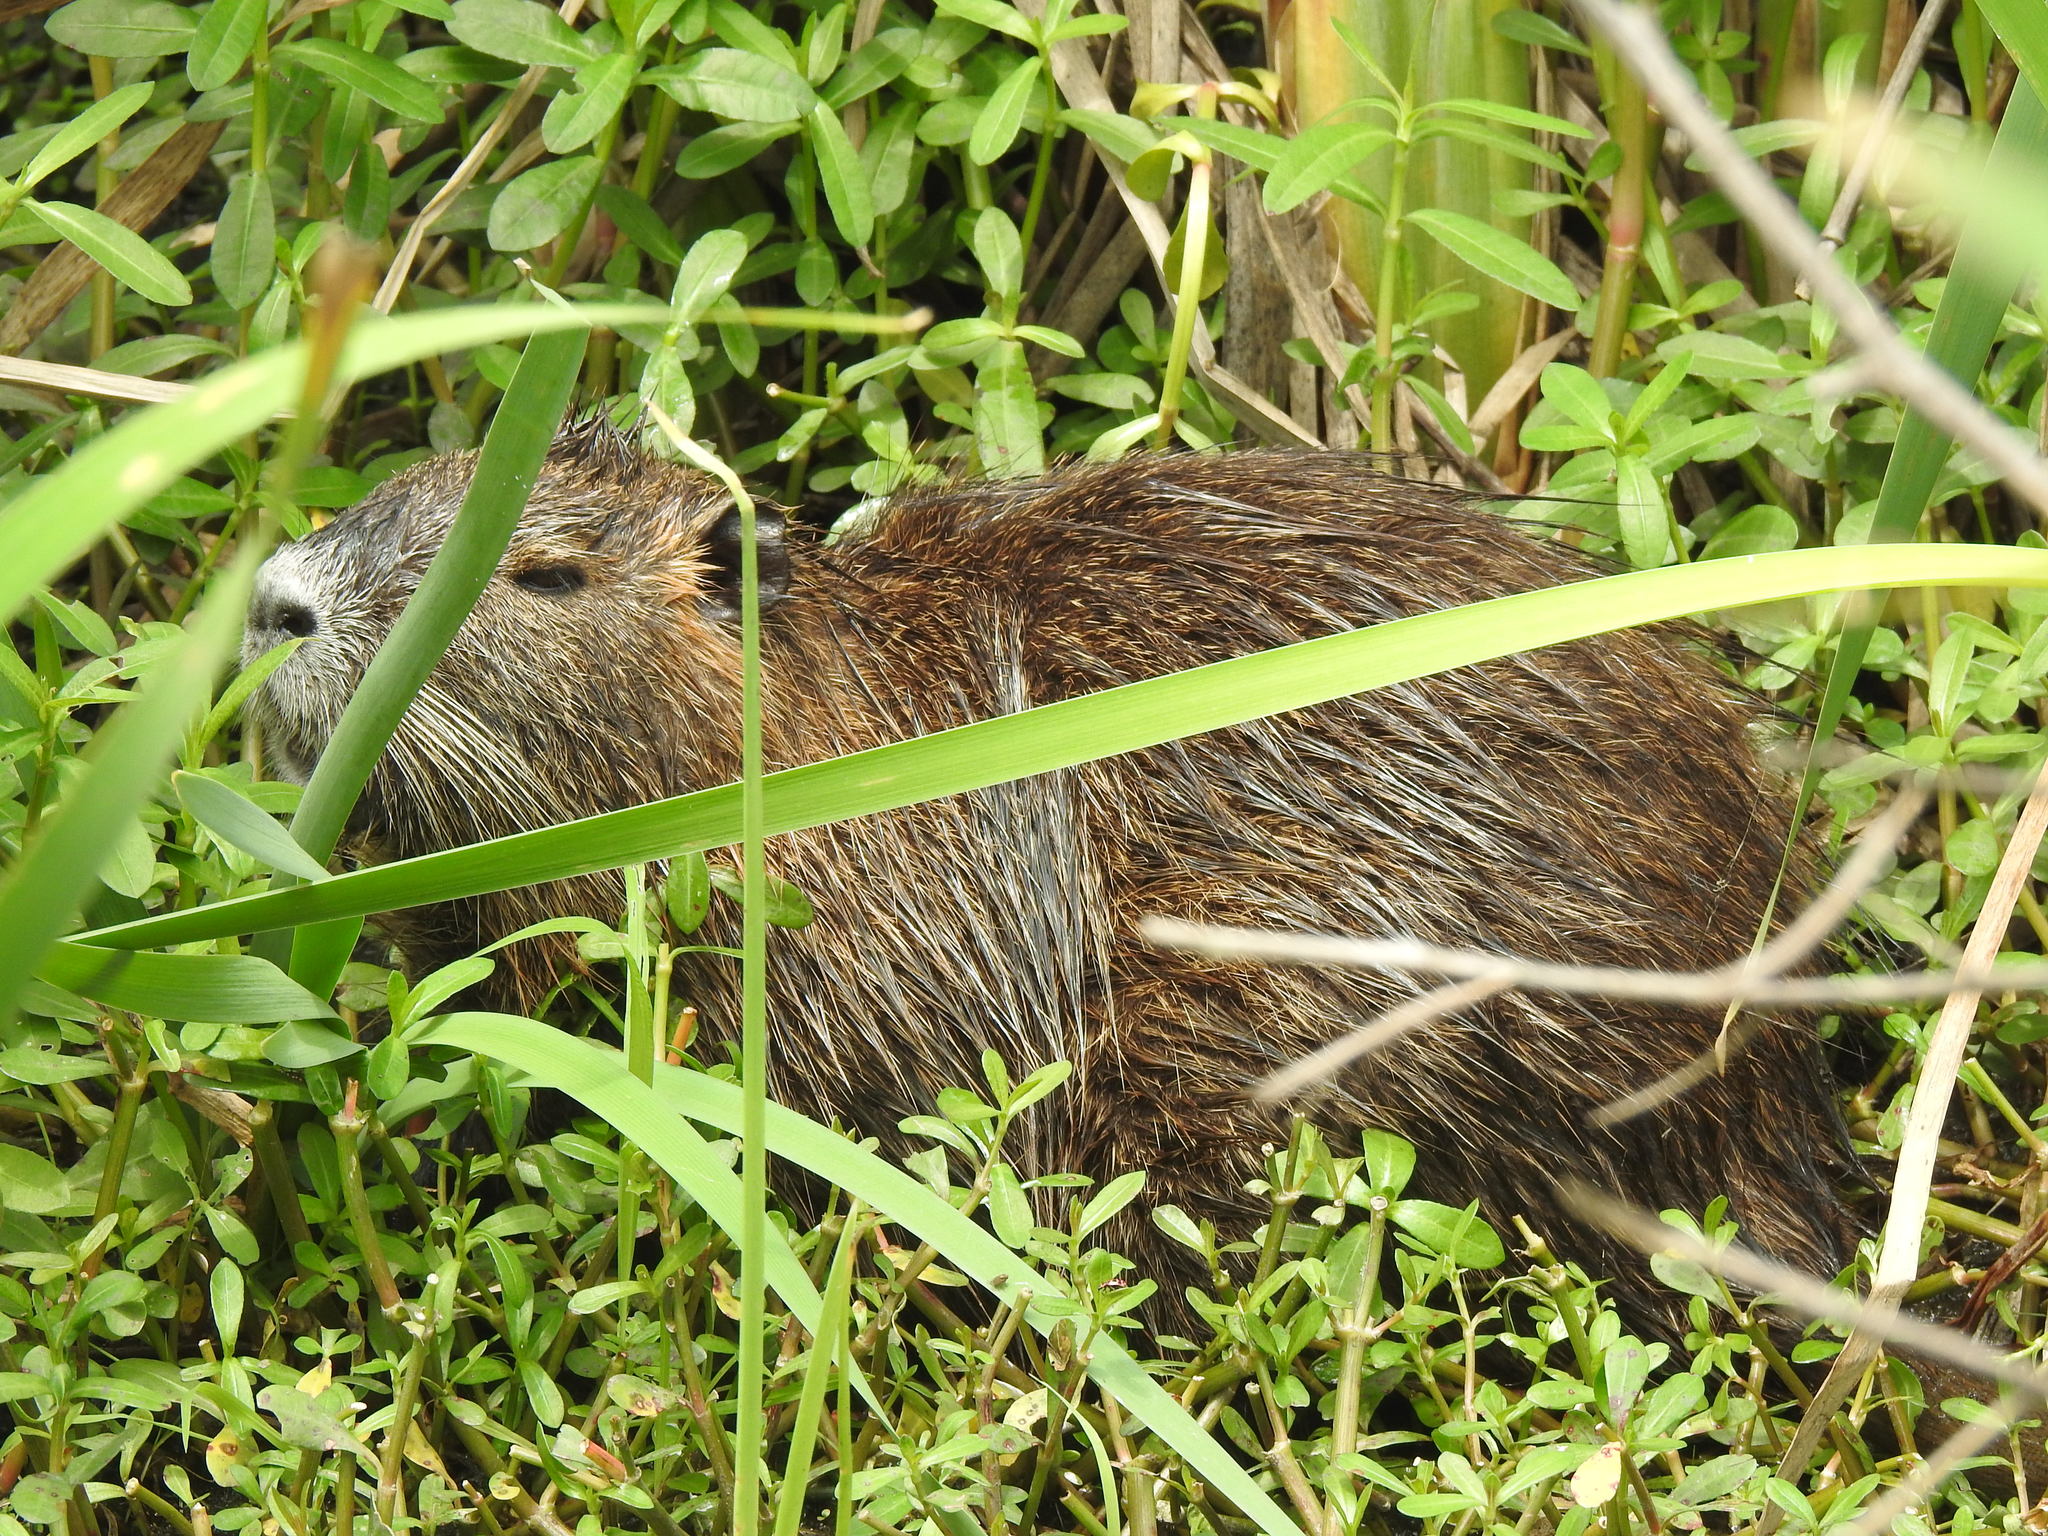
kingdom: Animalia
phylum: Chordata
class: Mammalia
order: Rodentia
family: Myocastoridae
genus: Myocastor
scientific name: Myocastor coypus
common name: Coypu
